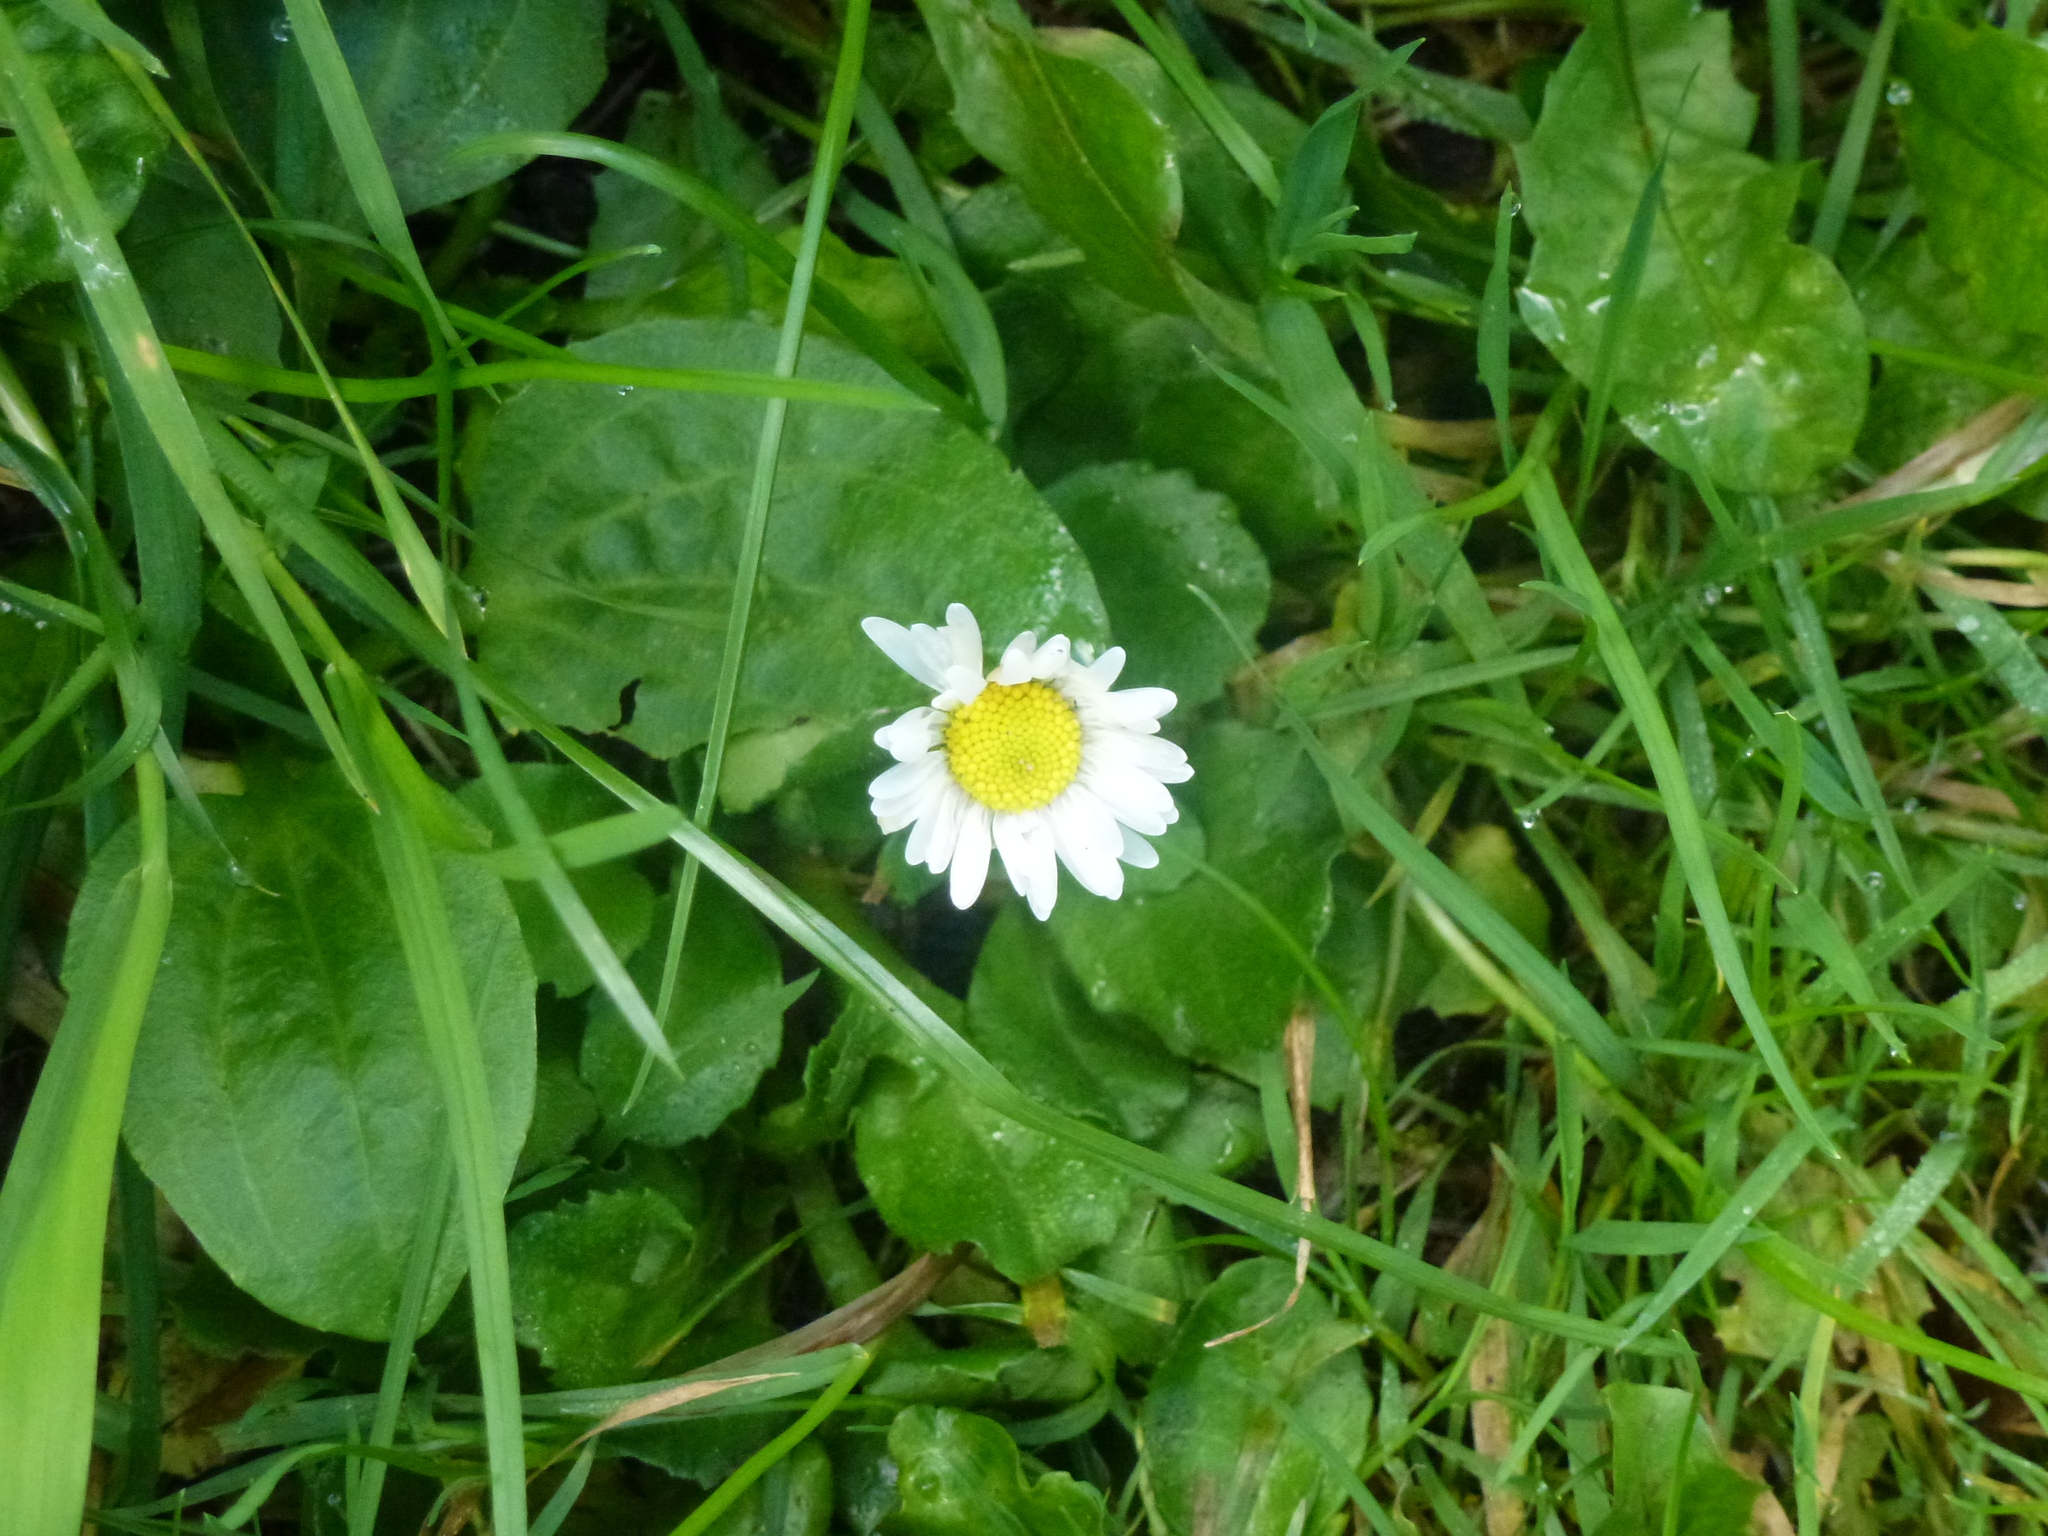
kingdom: Plantae
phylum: Tracheophyta
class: Magnoliopsida
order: Asterales
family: Asteraceae
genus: Bellis
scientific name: Bellis perennis
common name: Lawndaisy
